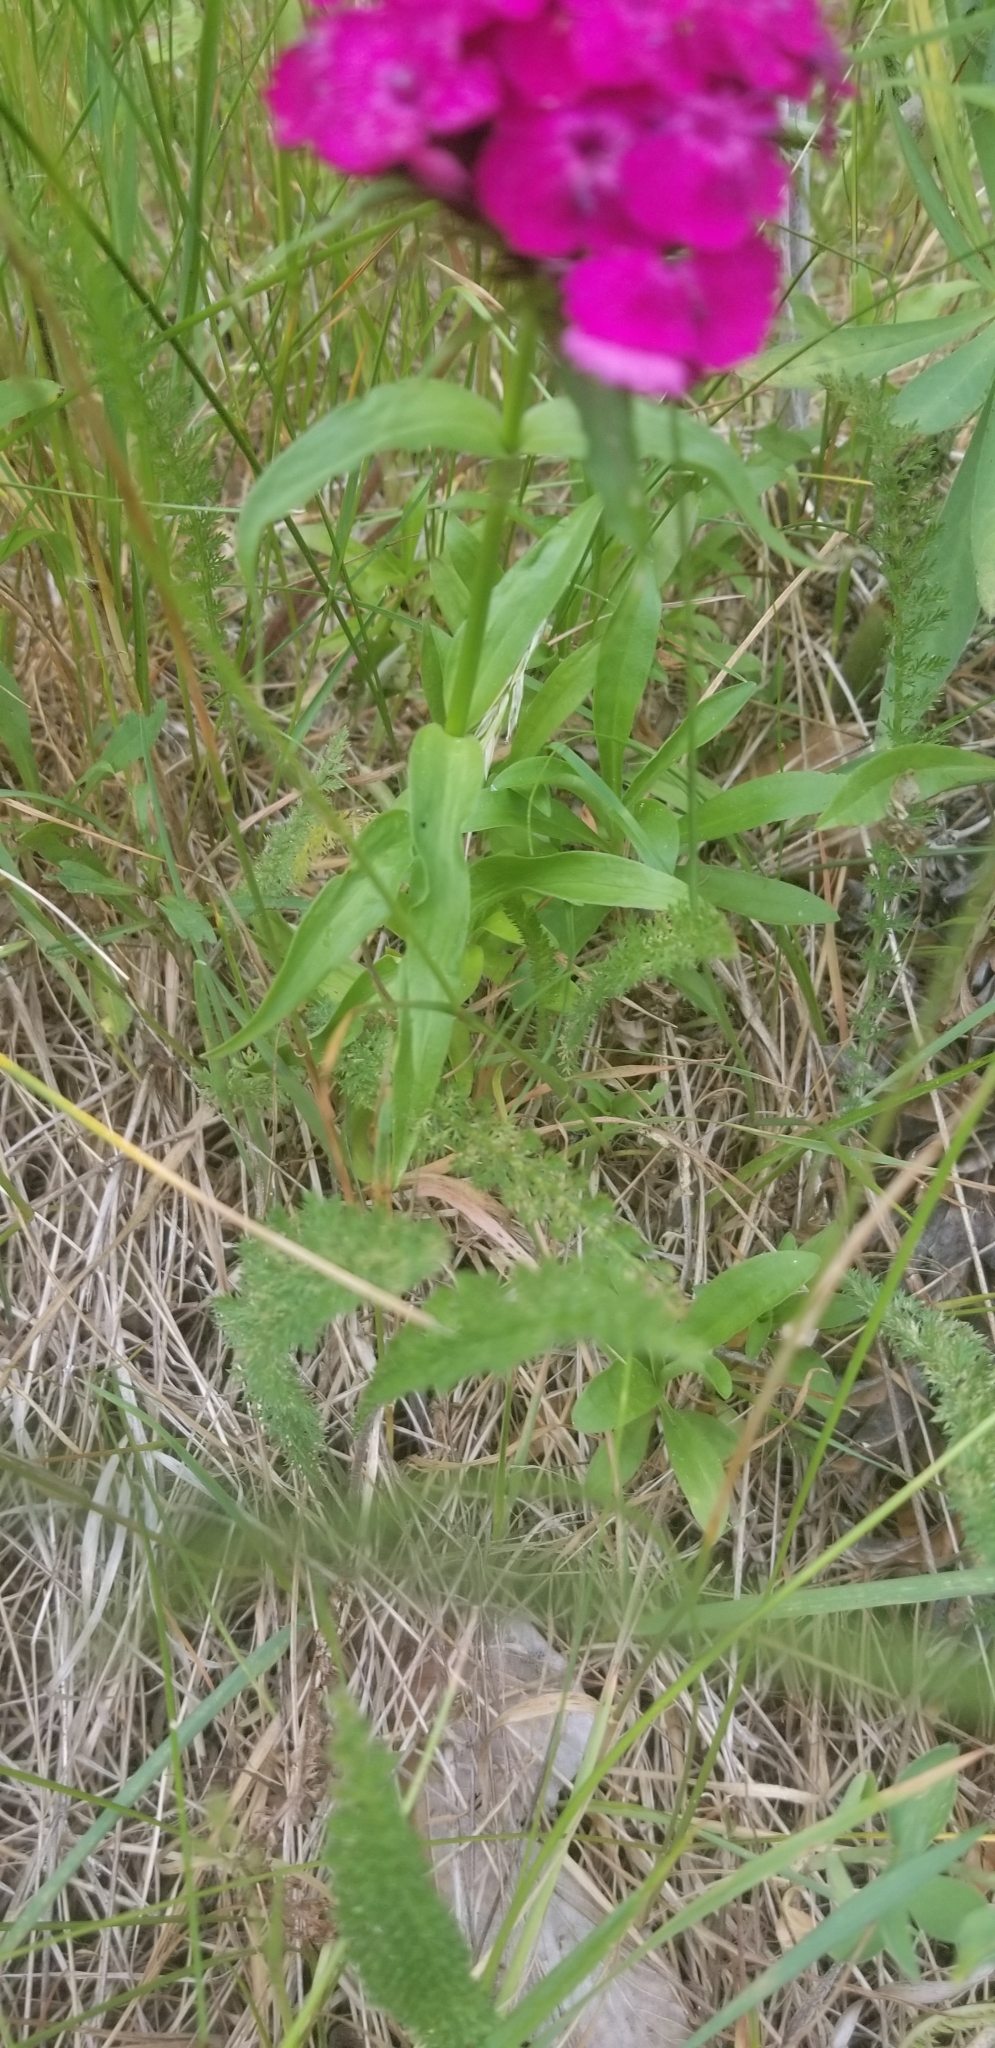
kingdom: Plantae
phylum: Tracheophyta
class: Magnoliopsida
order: Caryophyllales
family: Caryophyllaceae
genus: Dianthus
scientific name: Dianthus barbatus
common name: Sweet-william
